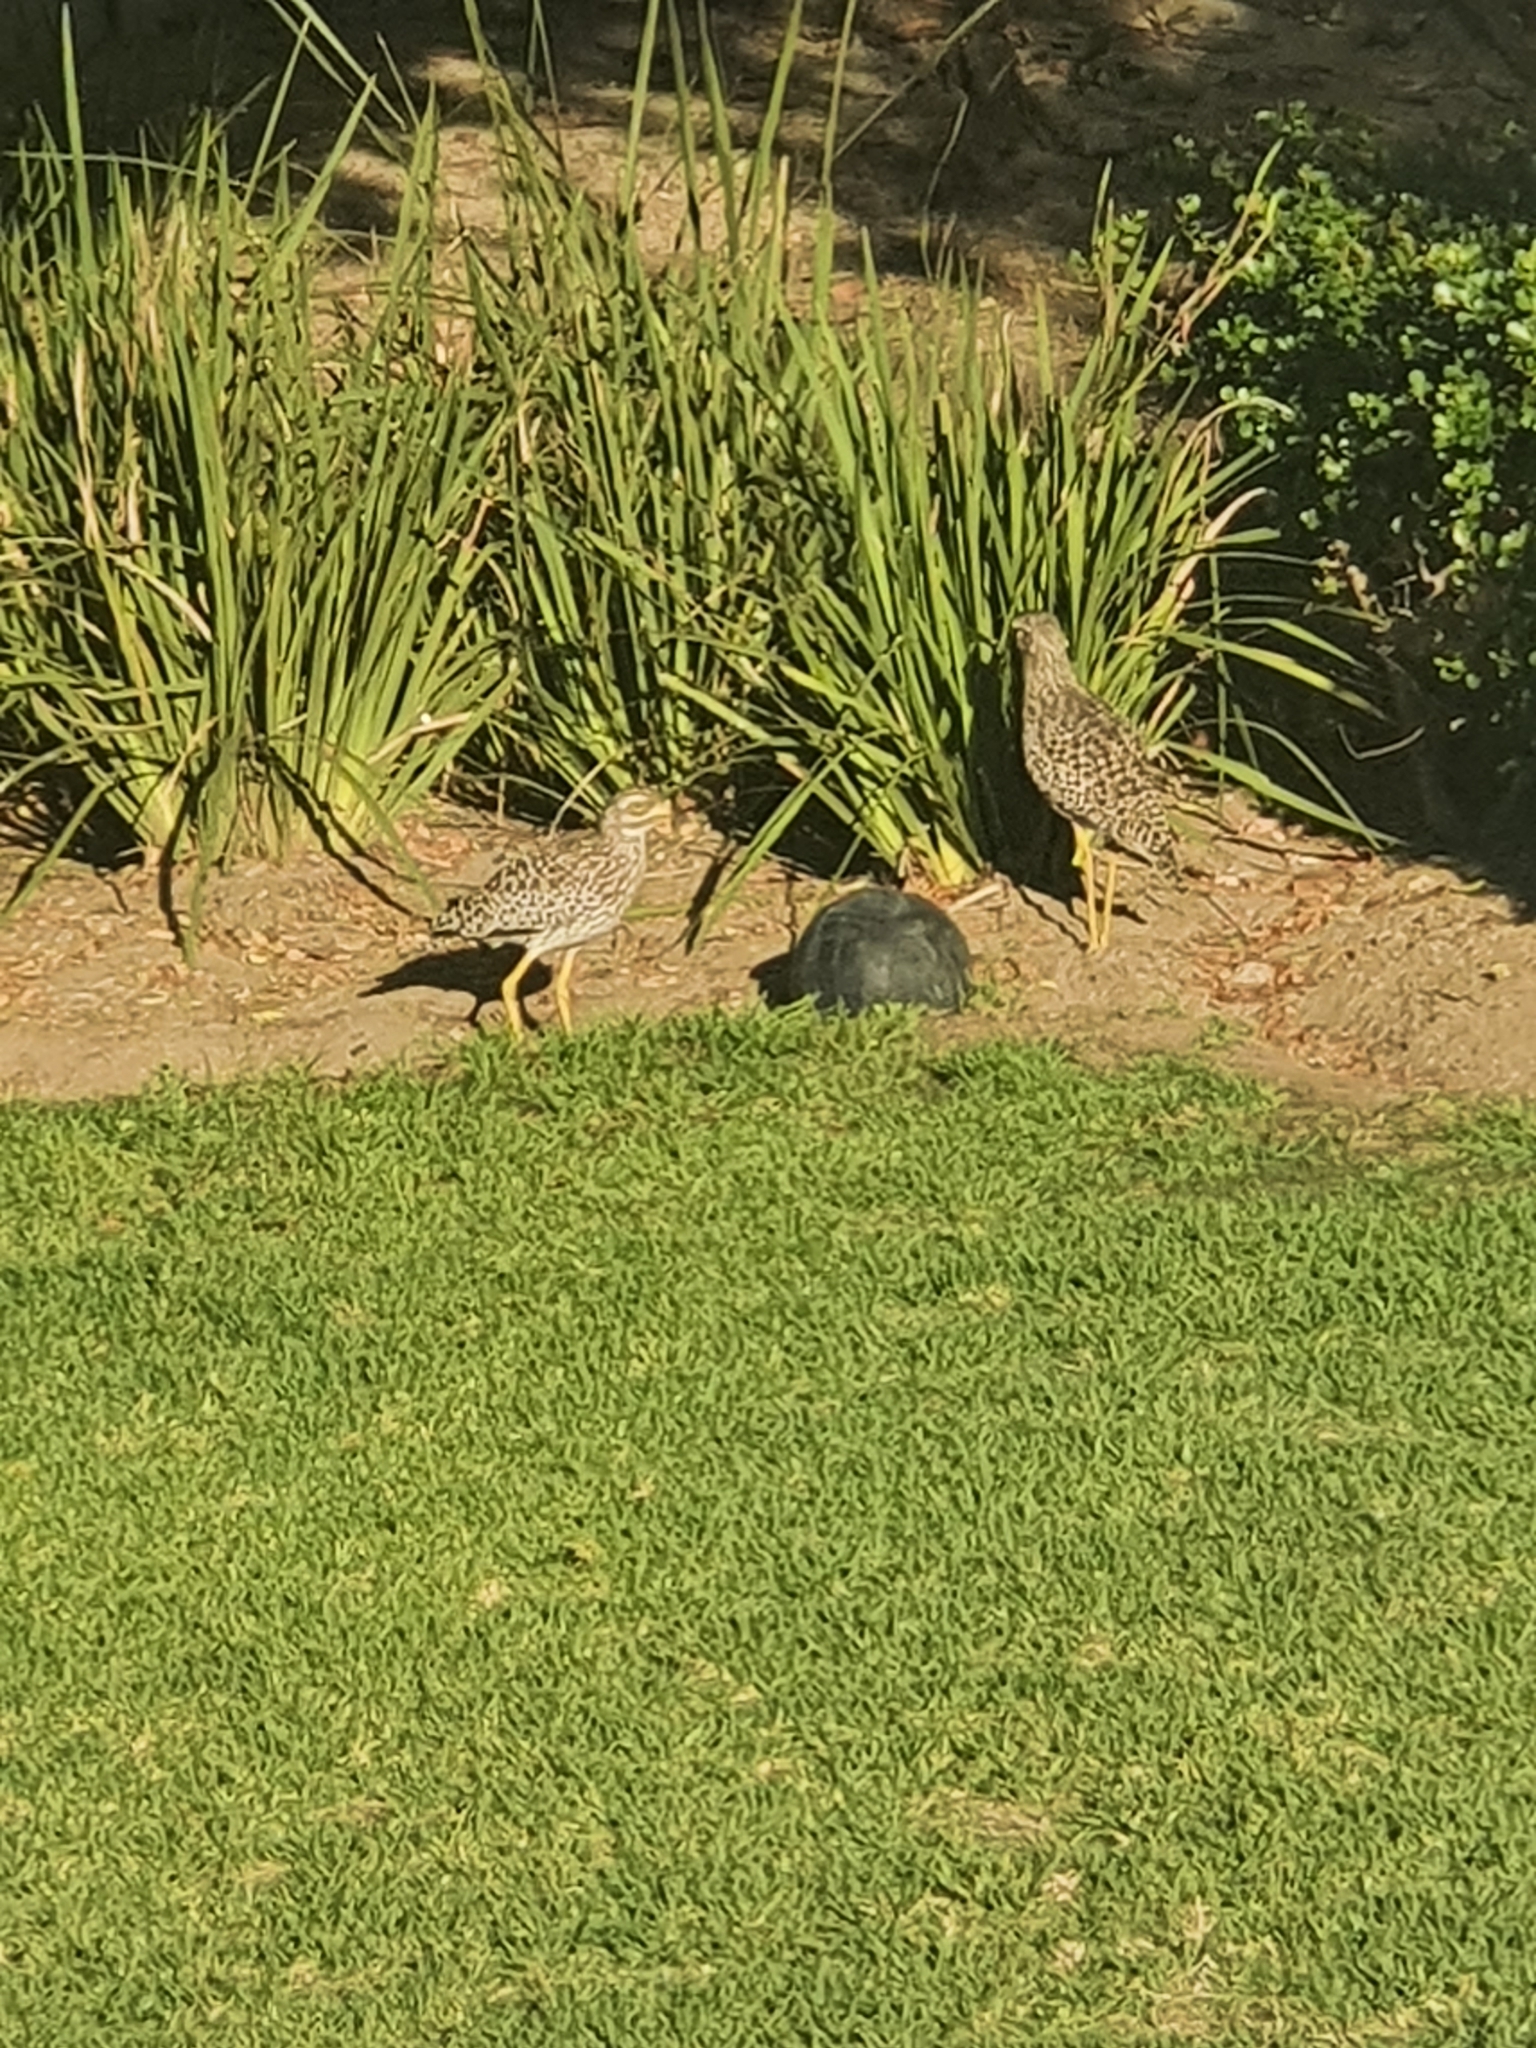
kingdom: Animalia
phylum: Chordata
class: Aves
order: Charadriiformes
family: Burhinidae
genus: Burhinus
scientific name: Burhinus capensis
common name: Spotted thick-knee
